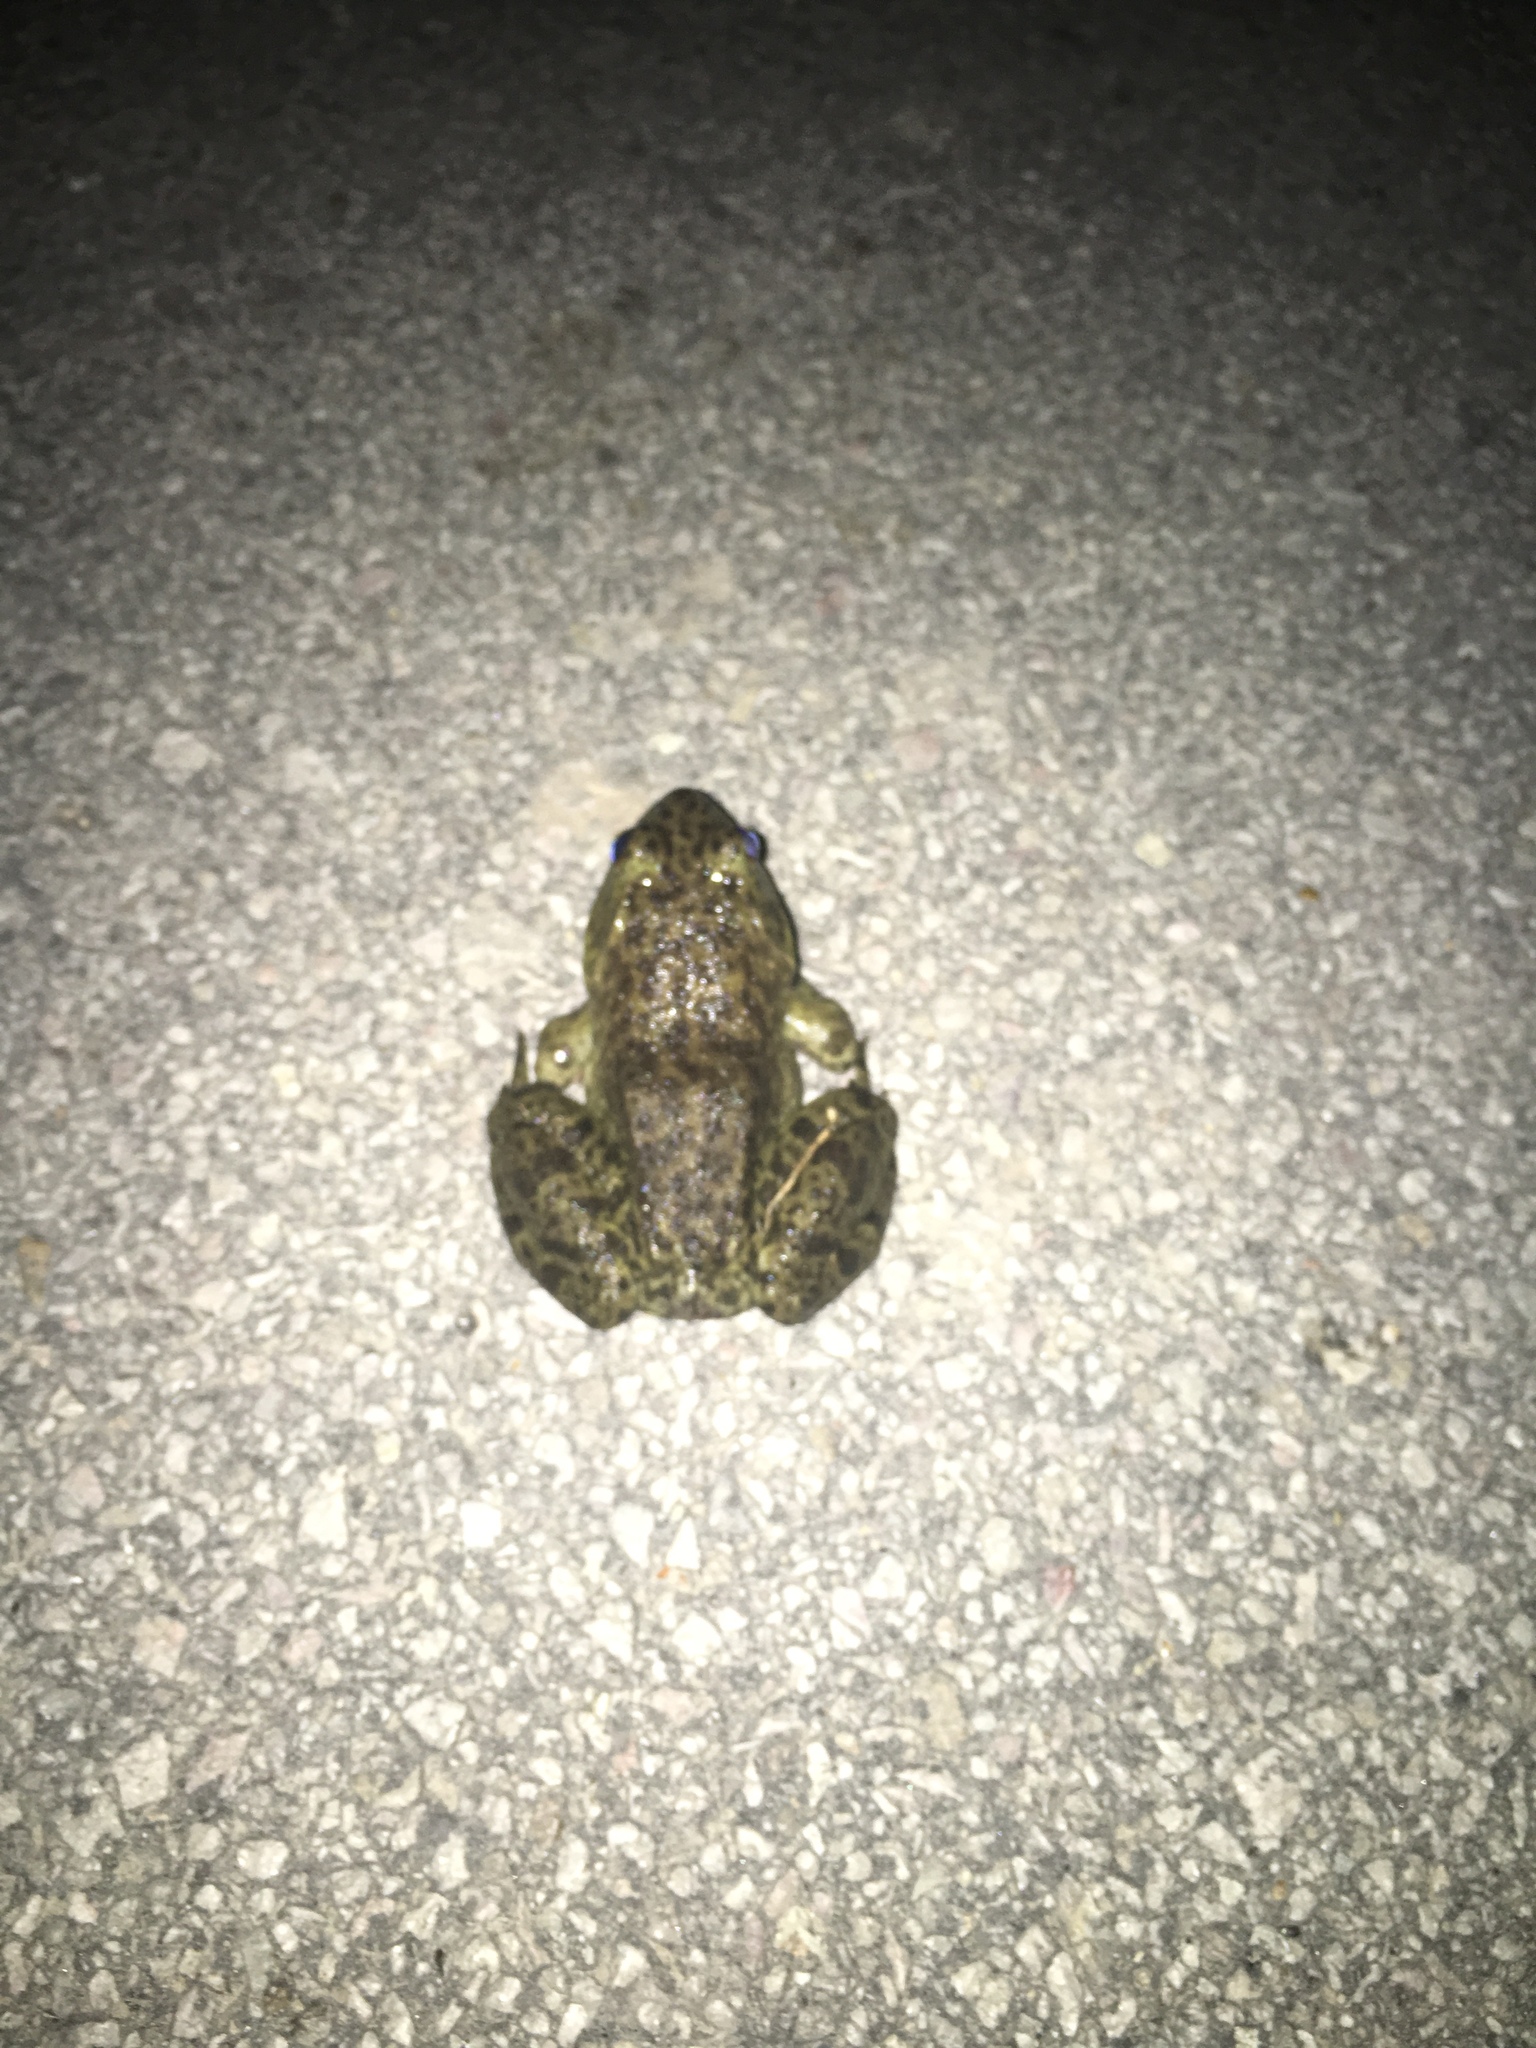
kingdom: Animalia
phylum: Chordata
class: Amphibia
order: Anura
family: Ranidae
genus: Lithobates
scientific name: Lithobates catesbeianus
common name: American bullfrog
